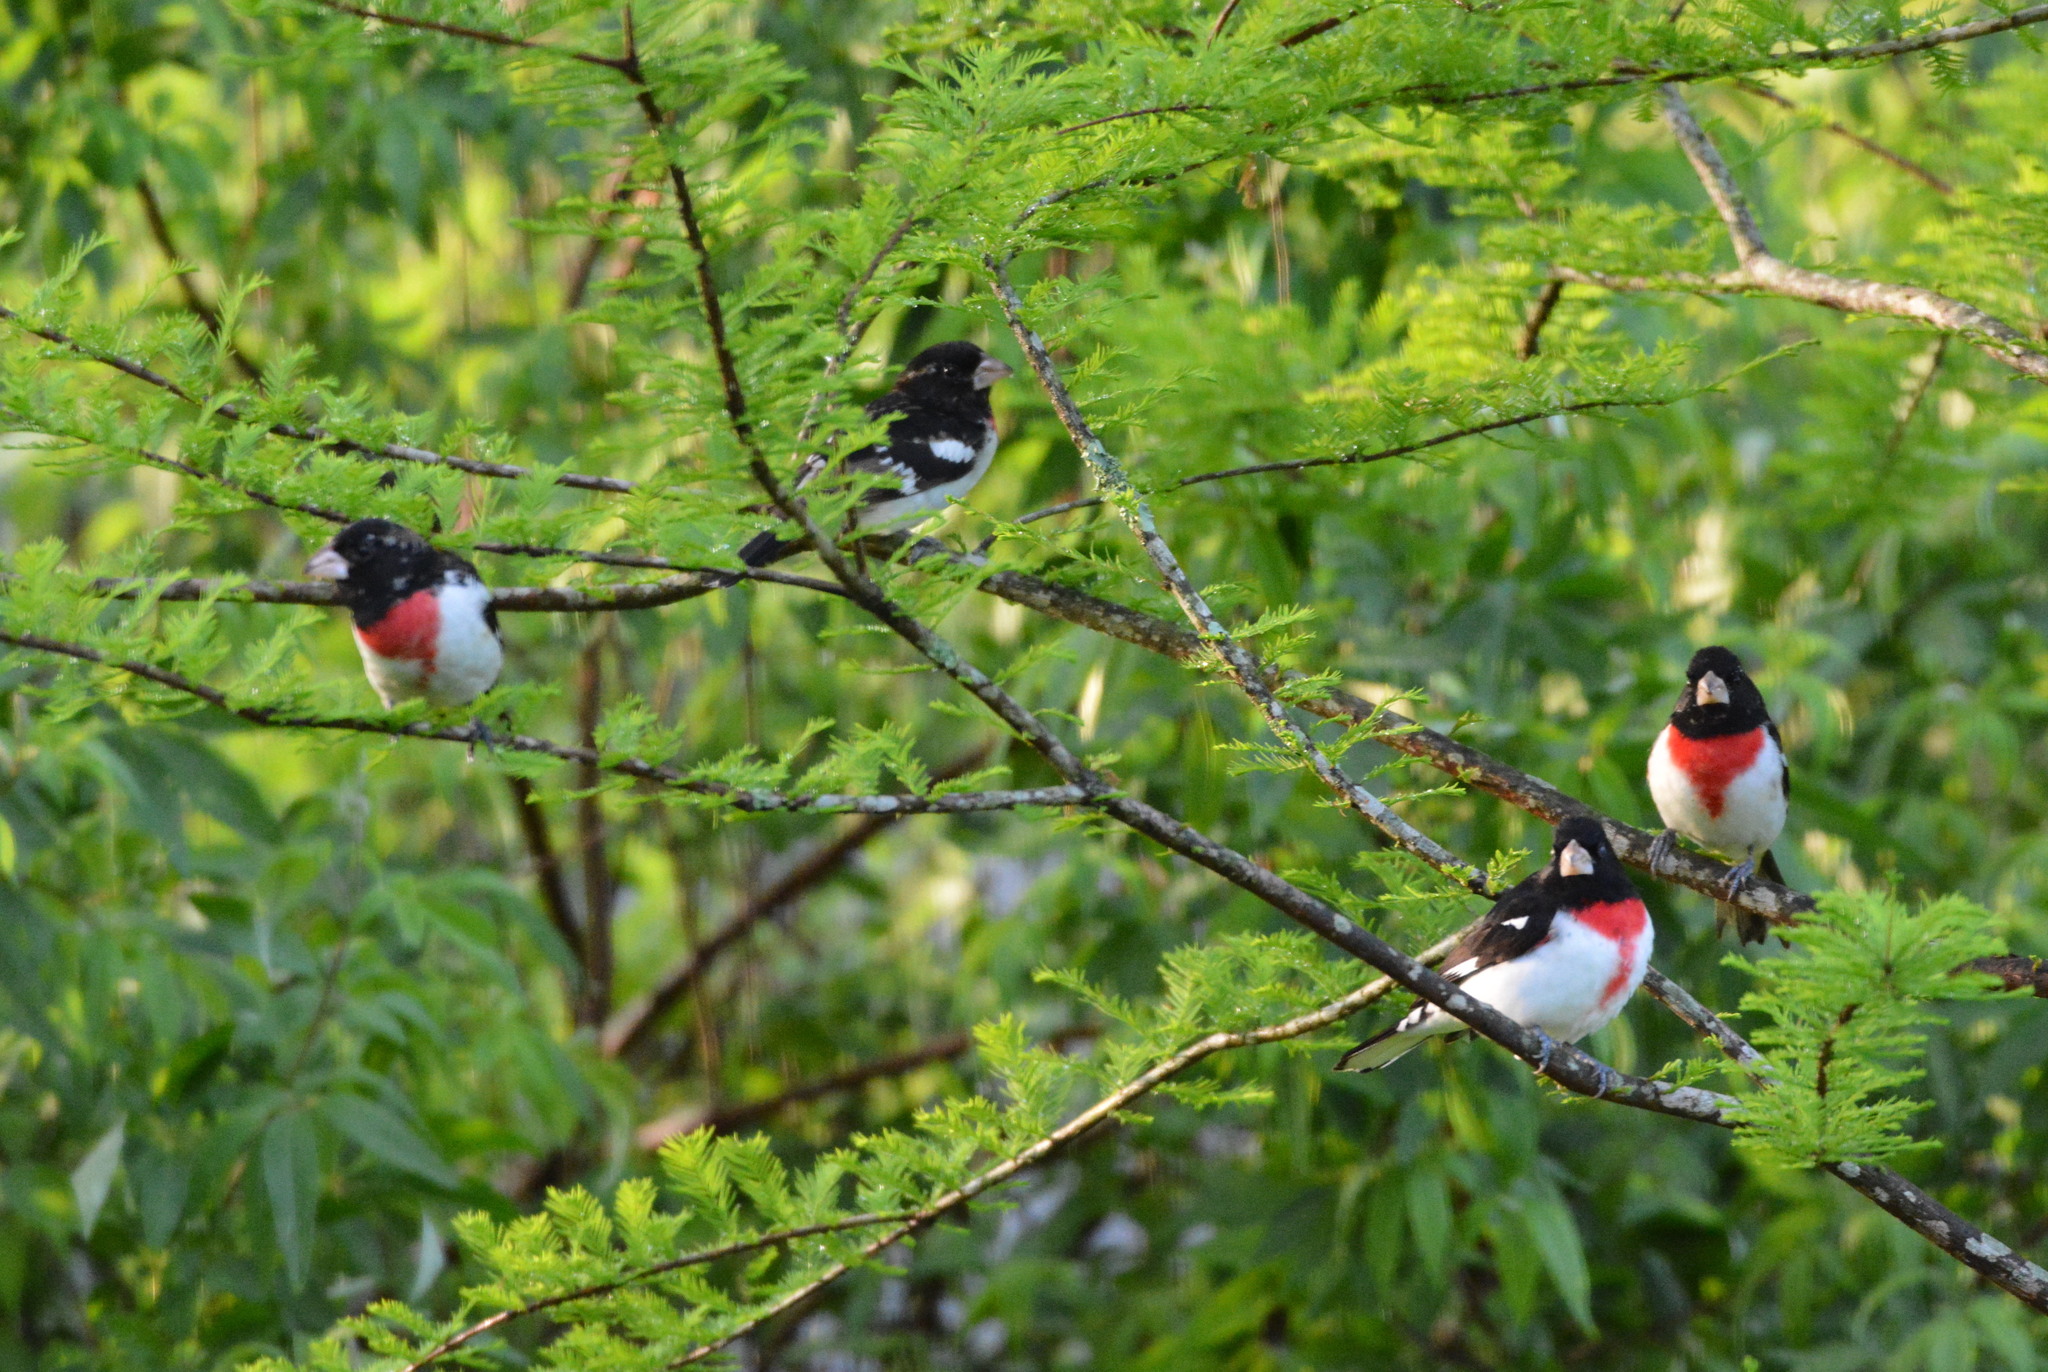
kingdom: Animalia
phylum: Chordata
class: Aves
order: Passeriformes
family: Cardinalidae
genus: Pheucticus
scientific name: Pheucticus ludovicianus
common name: Rose-breasted grosbeak
